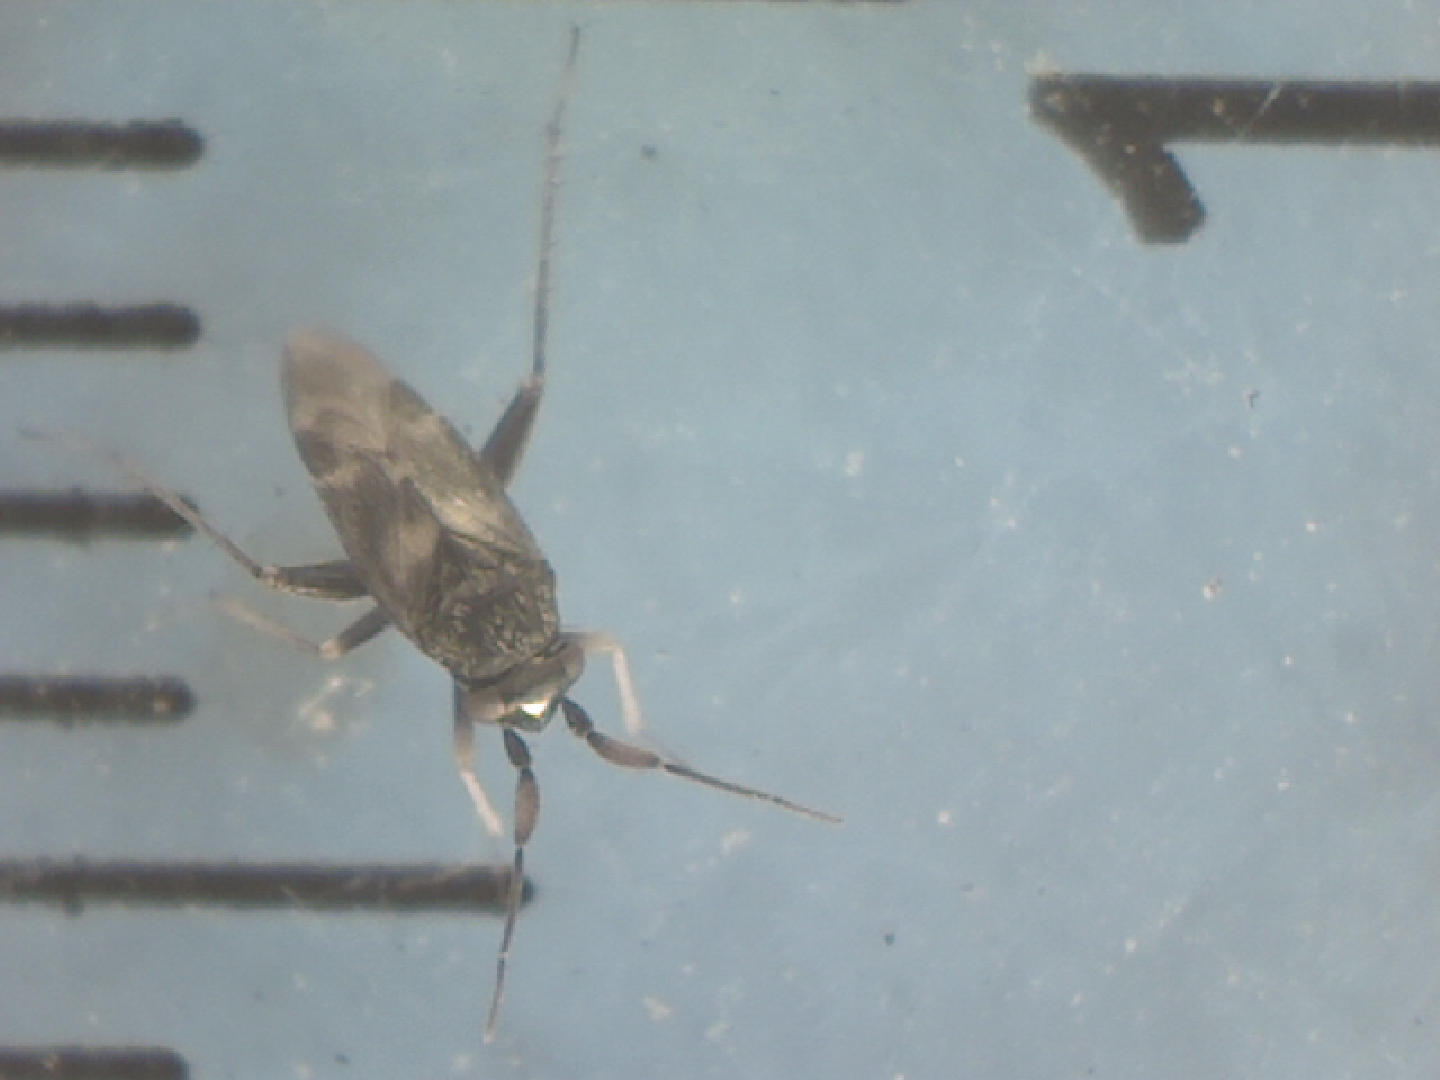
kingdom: Animalia
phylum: Arthropoda
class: Insecta
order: Hemiptera
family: Miridae
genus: Spanagonicus
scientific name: Spanagonicus albofasciatus
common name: Whitemarked fleahopper
